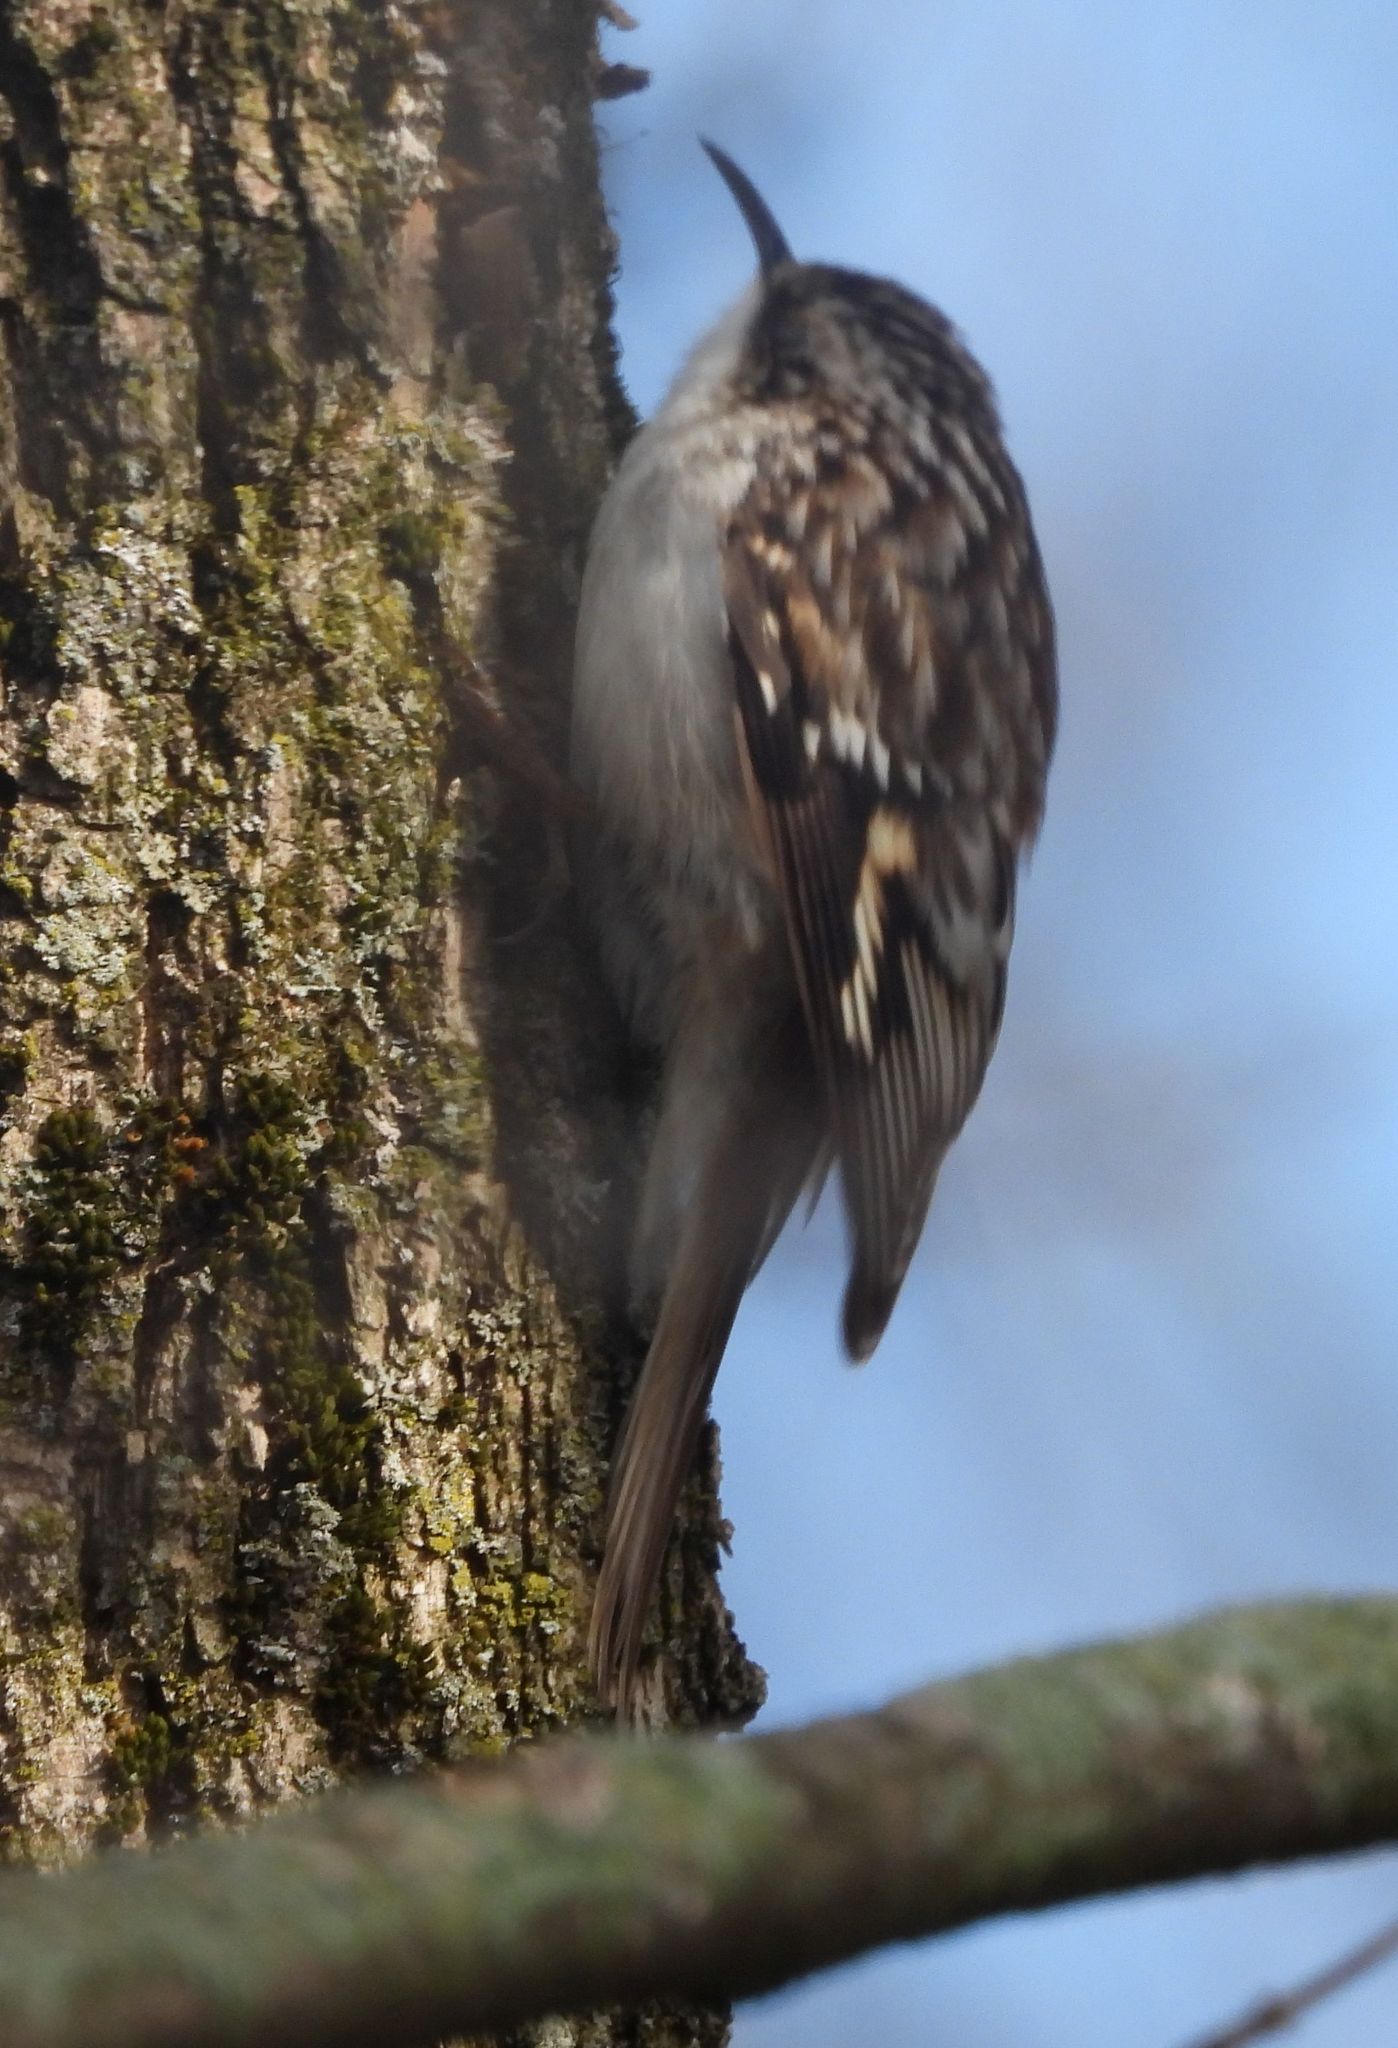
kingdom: Animalia
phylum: Chordata
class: Aves
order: Passeriformes
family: Certhiidae
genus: Certhia
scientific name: Certhia americana
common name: Brown creeper
